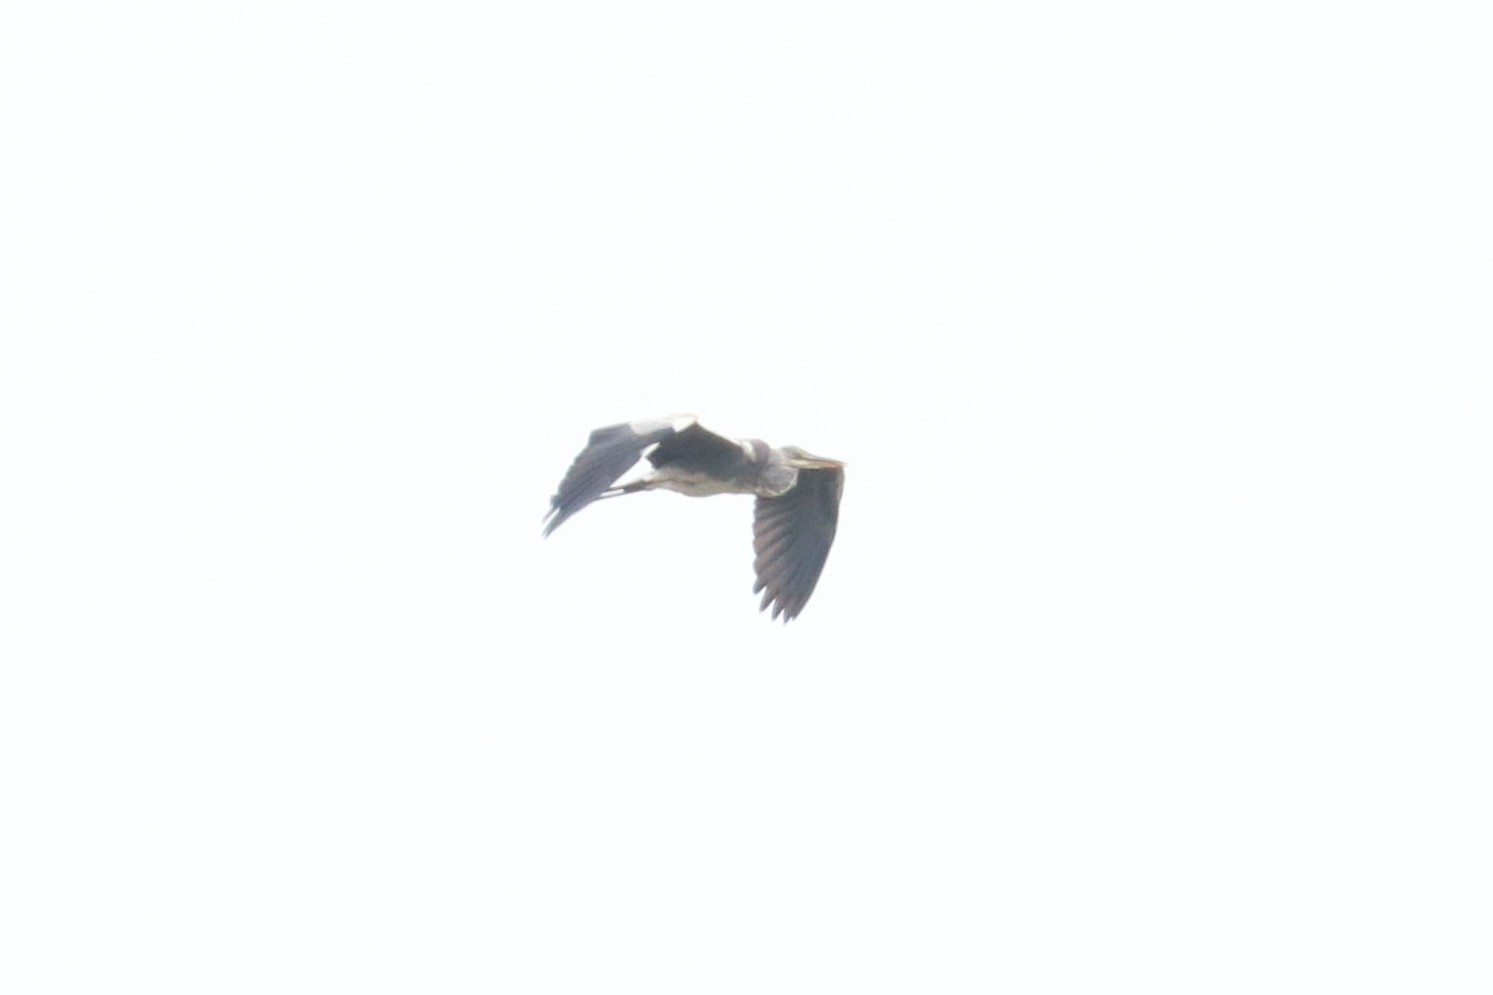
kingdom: Animalia
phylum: Chordata
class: Aves
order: Pelecaniformes
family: Ardeidae
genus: Ardea
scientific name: Ardea cinerea
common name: Grey heron
